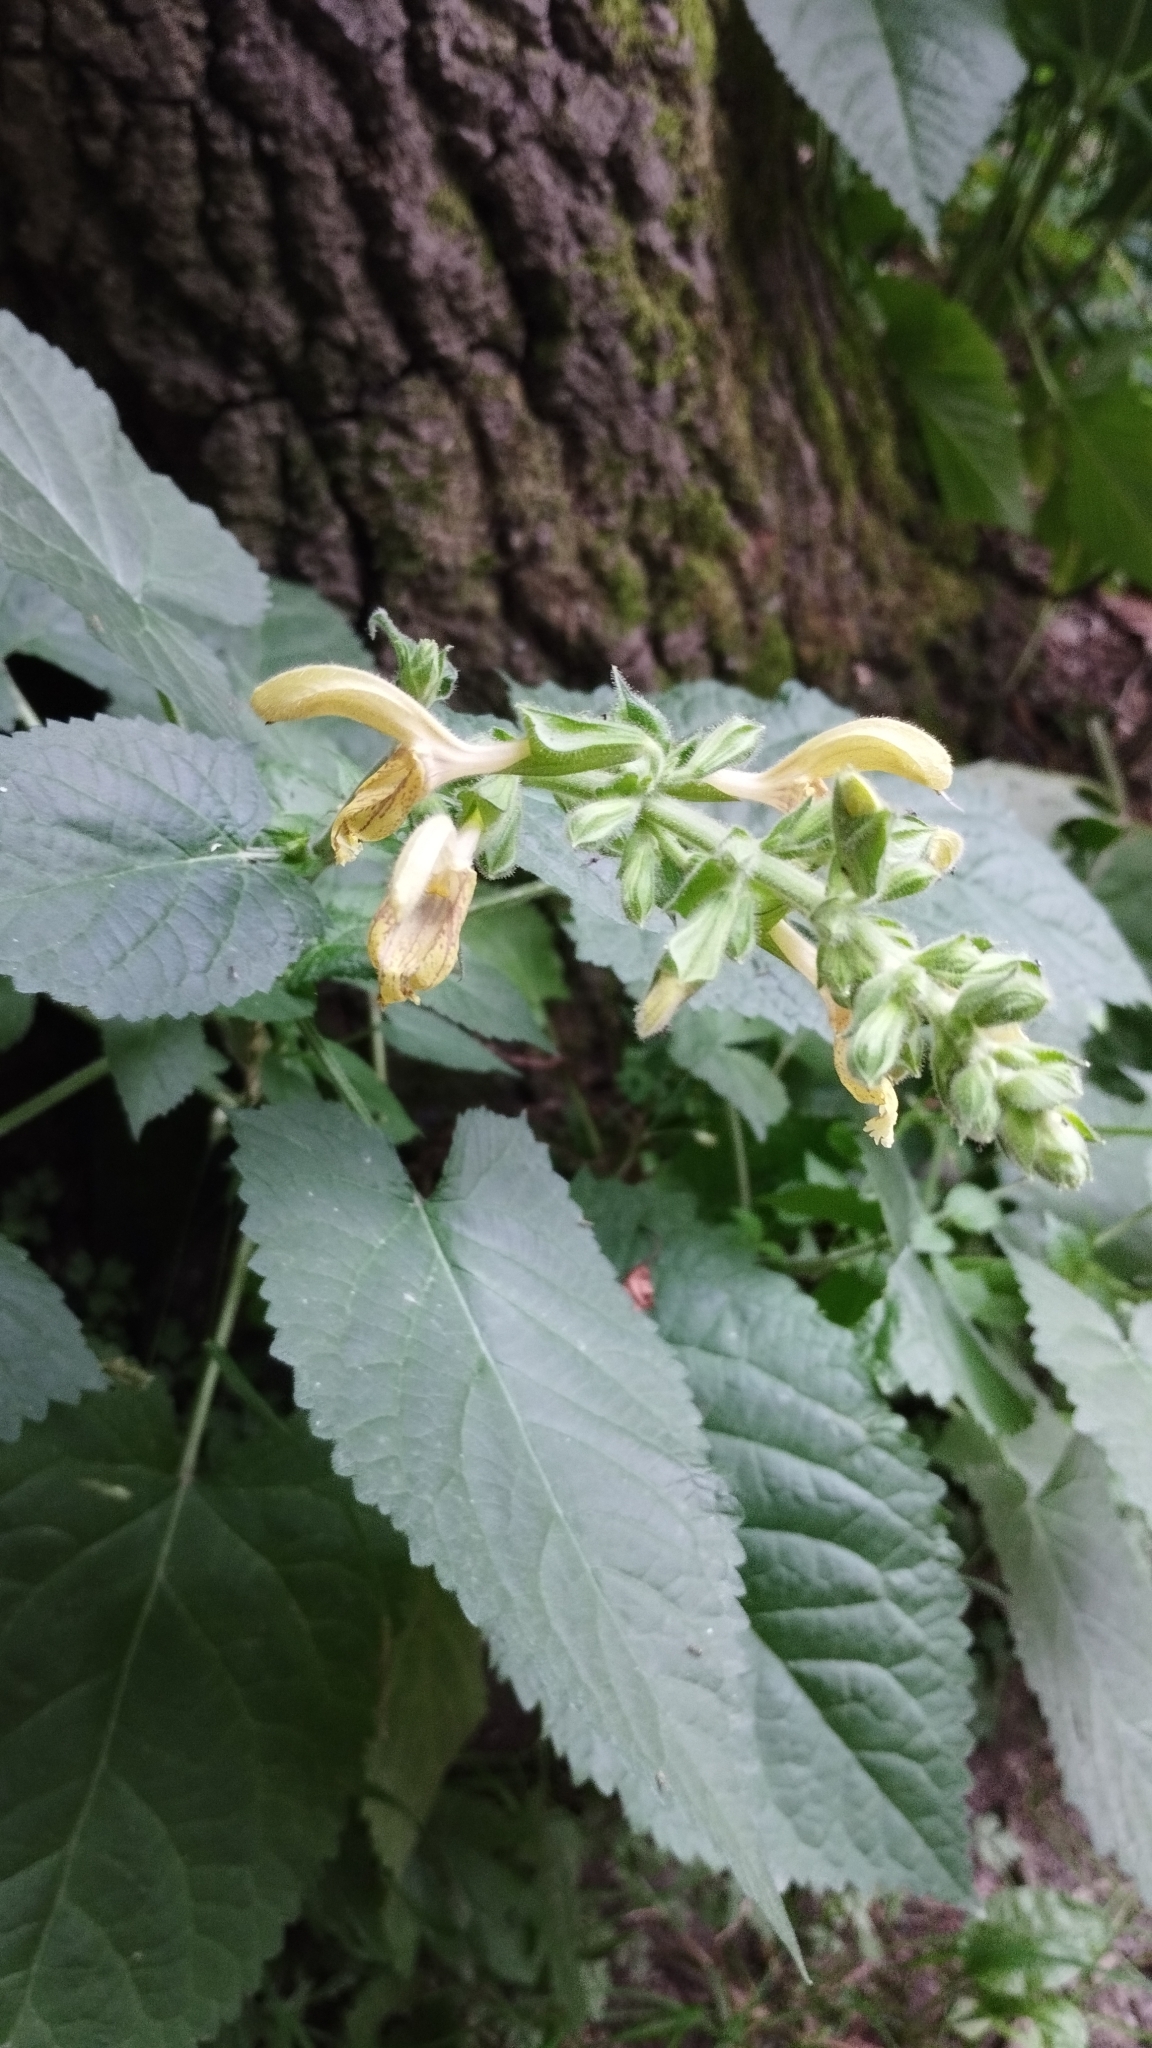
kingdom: Plantae
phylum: Tracheophyta
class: Magnoliopsida
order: Lamiales
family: Lamiaceae
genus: Salvia
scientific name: Salvia glutinosa
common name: Sticky clary
